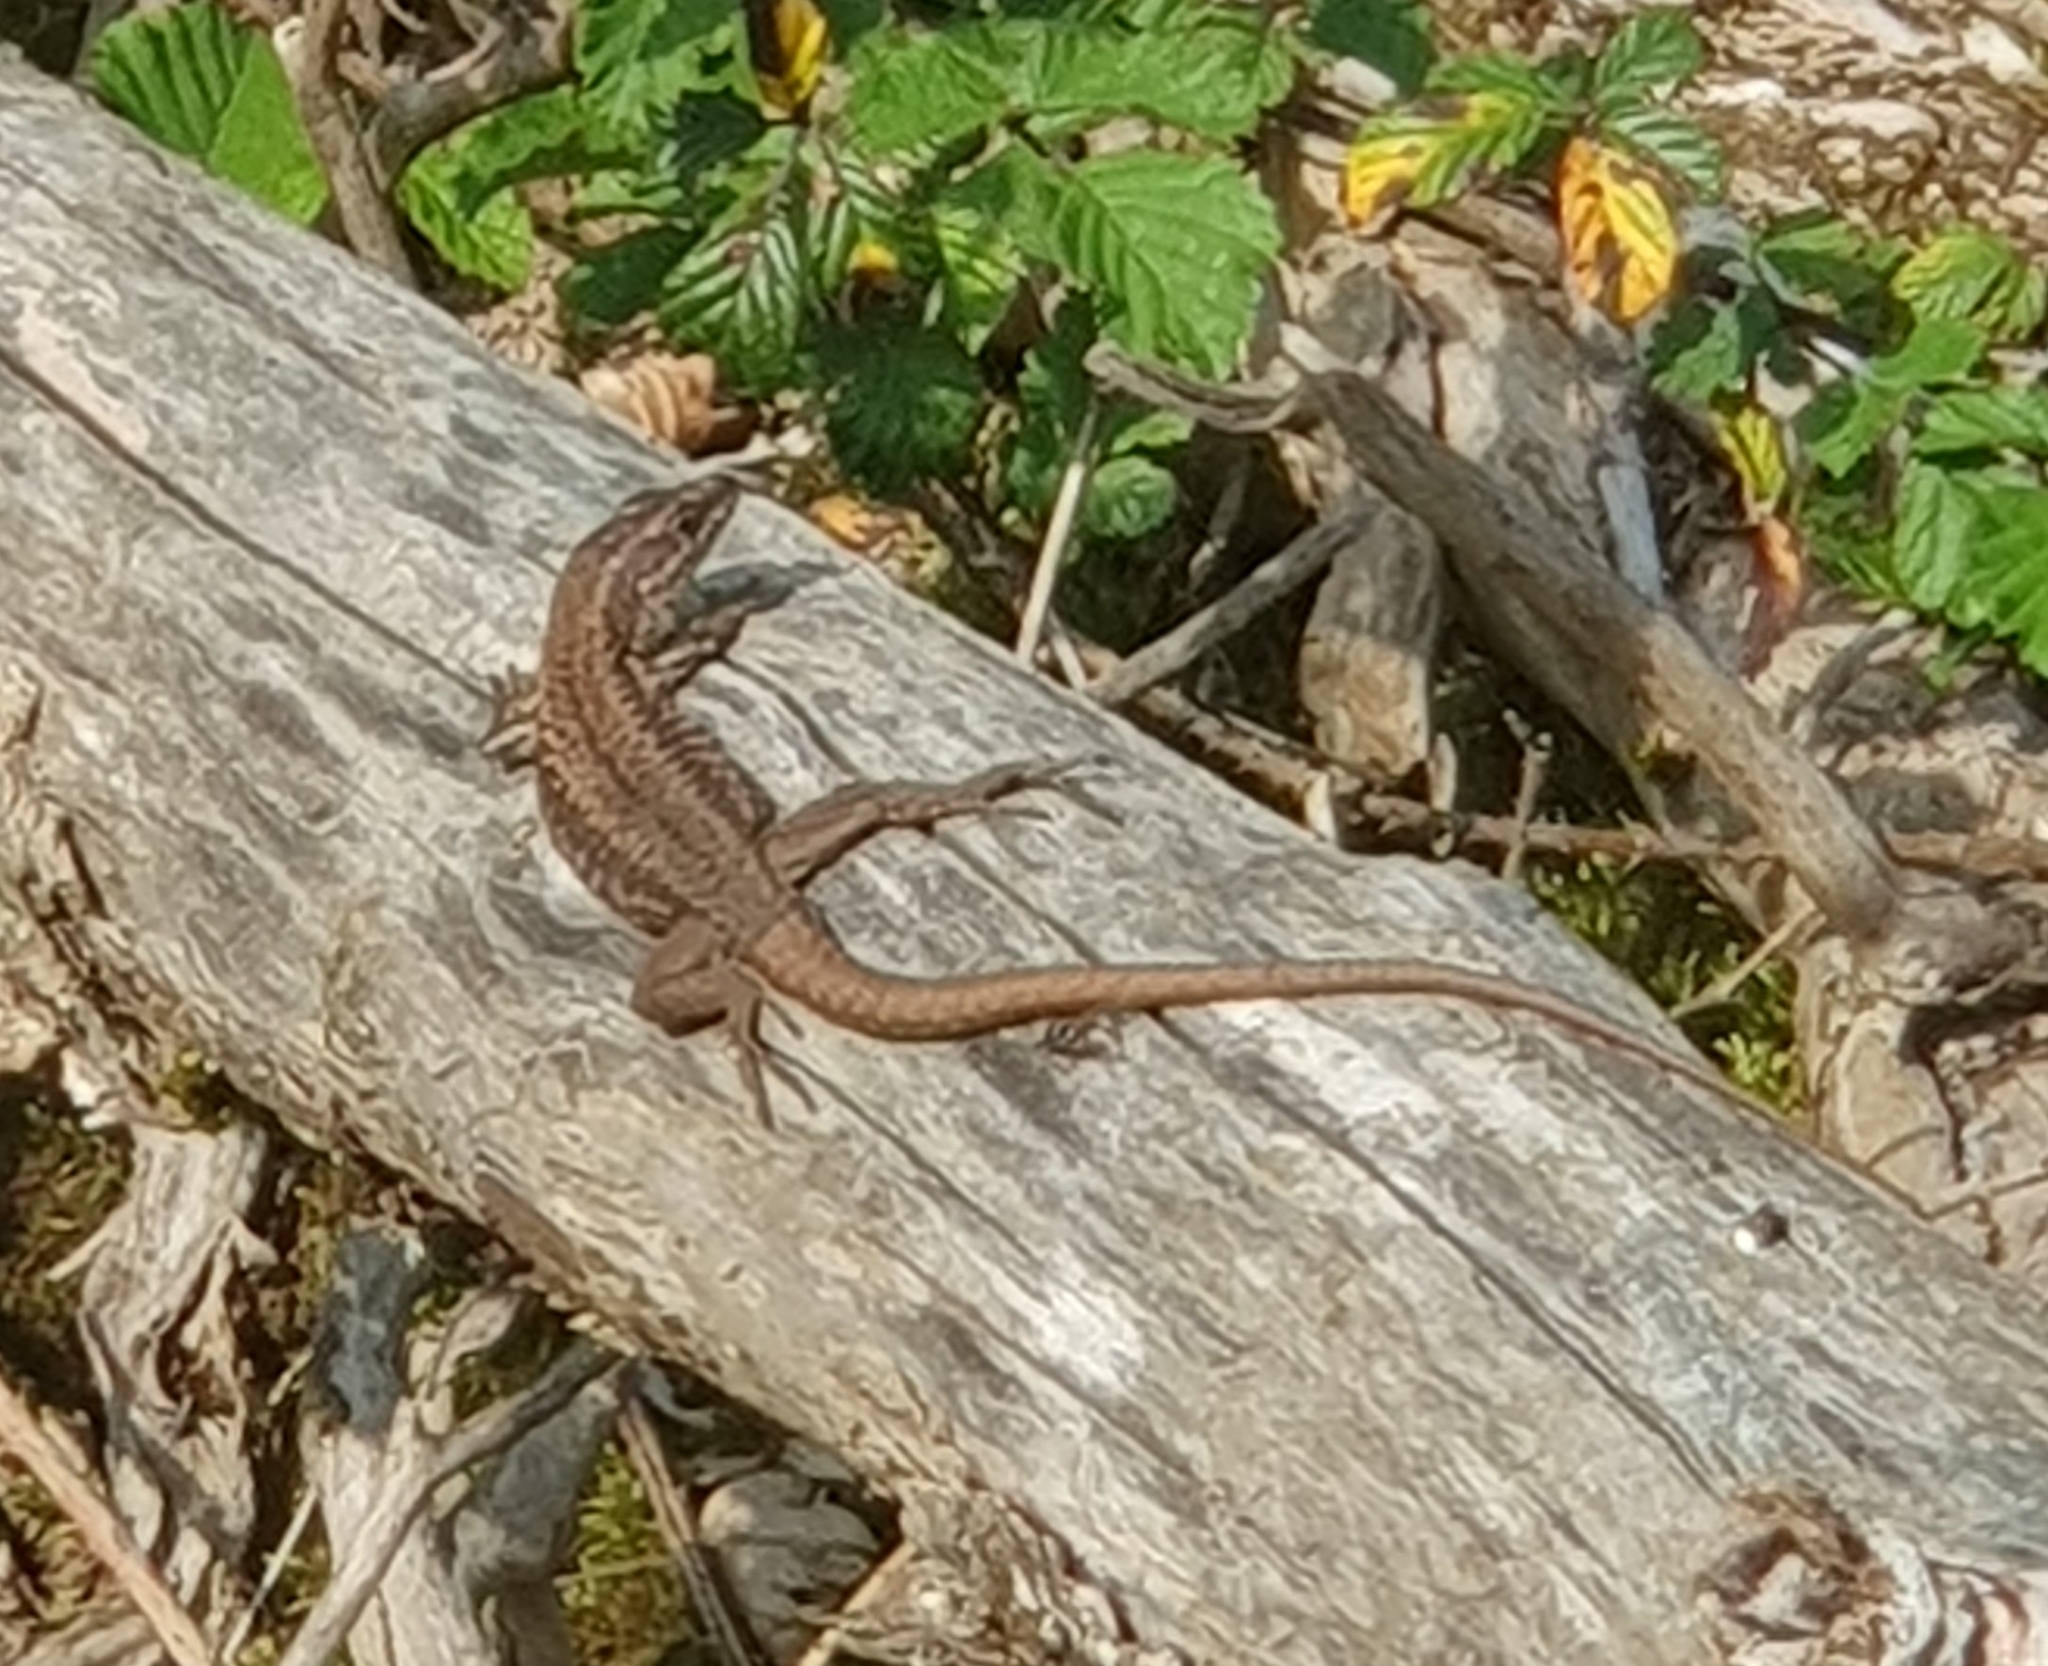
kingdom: Animalia
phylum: Chordata
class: Squamata
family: Lacertidae
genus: Podarcis
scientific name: Podarcis muralis
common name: Common wall lizard
